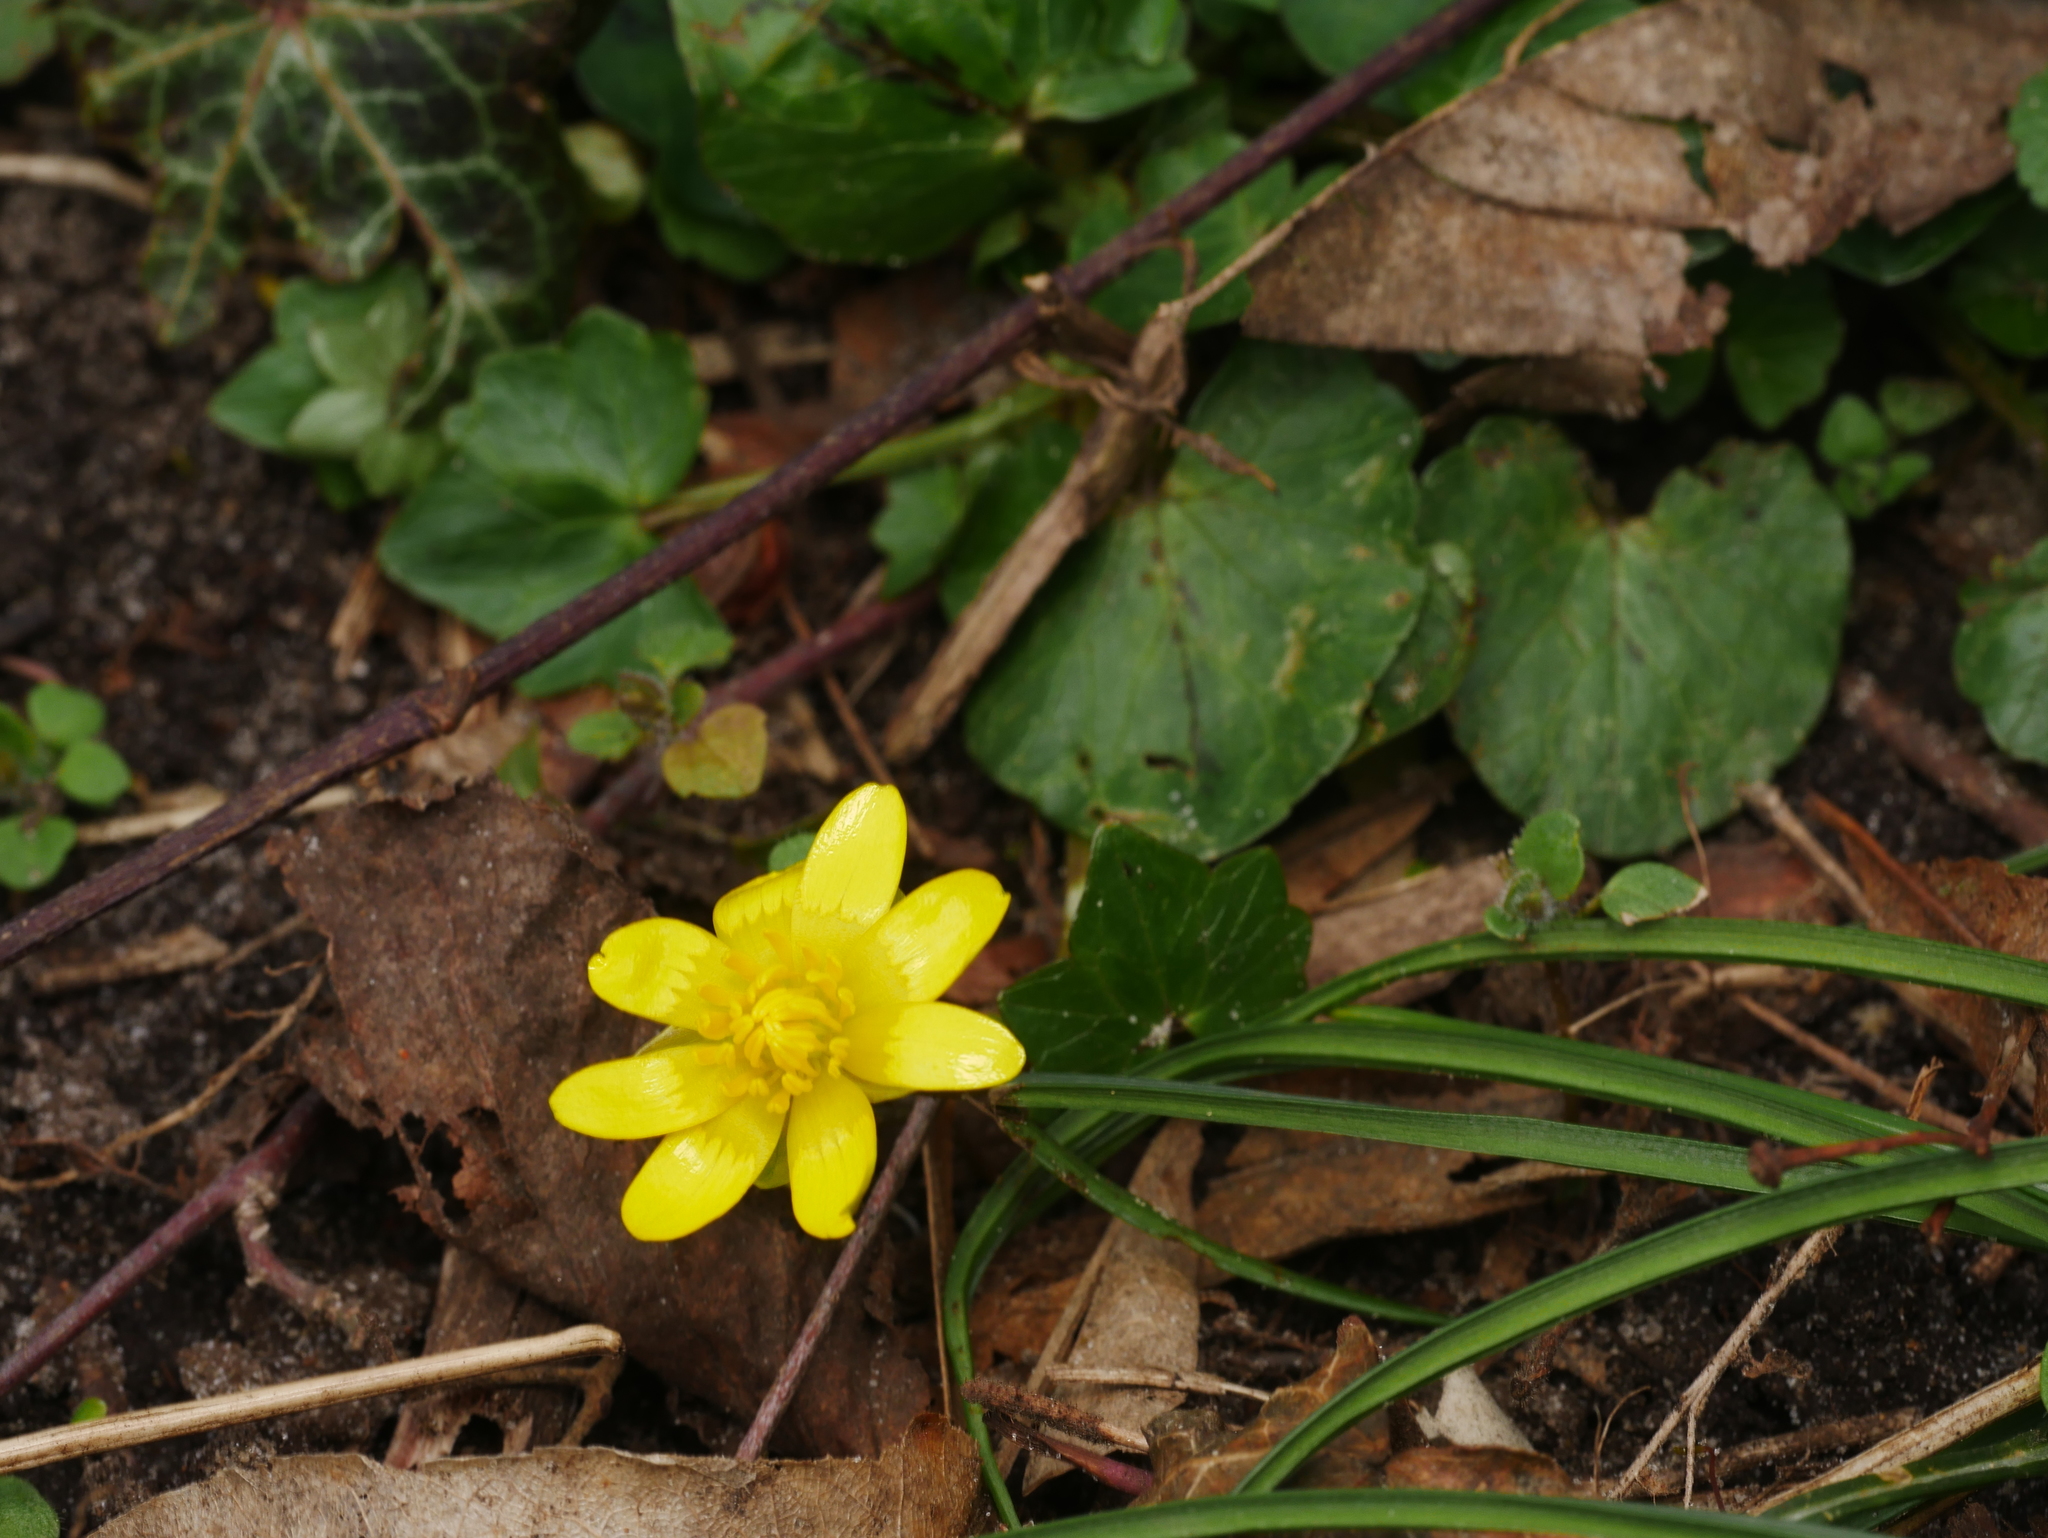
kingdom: Plantae
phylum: Tracheophyta
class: Magnoliopsida
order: Ranunculales
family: Ranunculaceae
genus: Ficaria
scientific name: Ficaria verna
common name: Lesser celandine
